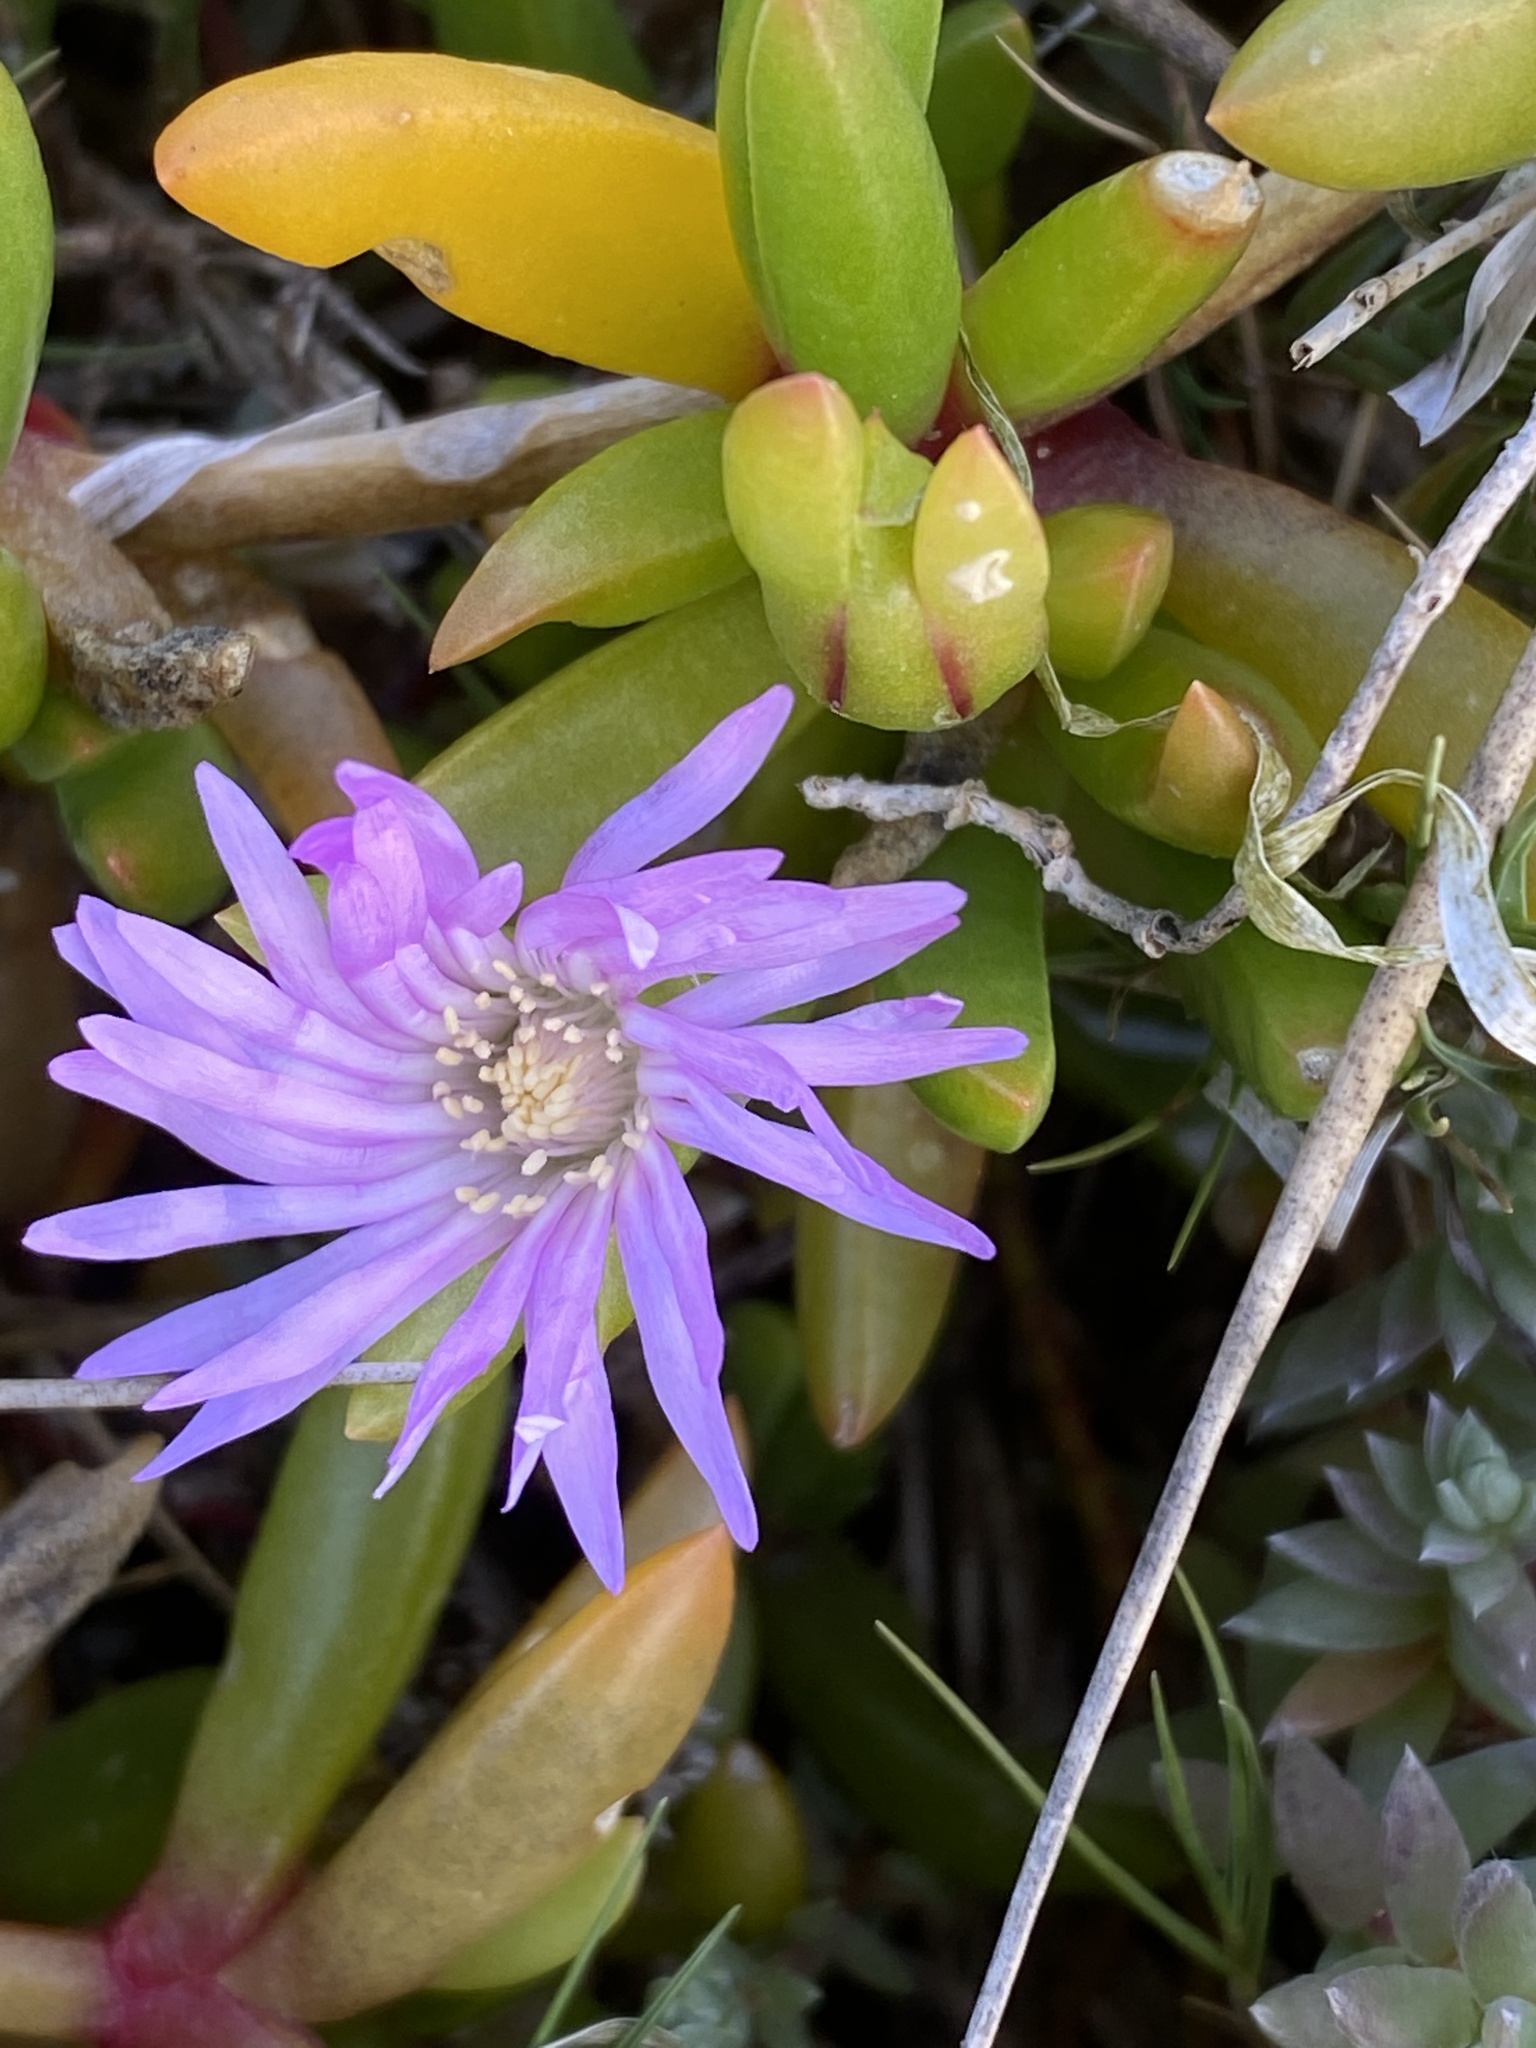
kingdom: Plantae
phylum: Tracheophyta
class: Magnoliopsida
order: Caryophyllales
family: Aizoaceae
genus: Disphyma
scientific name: Disphyma crassifolium
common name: Purple dewplant
